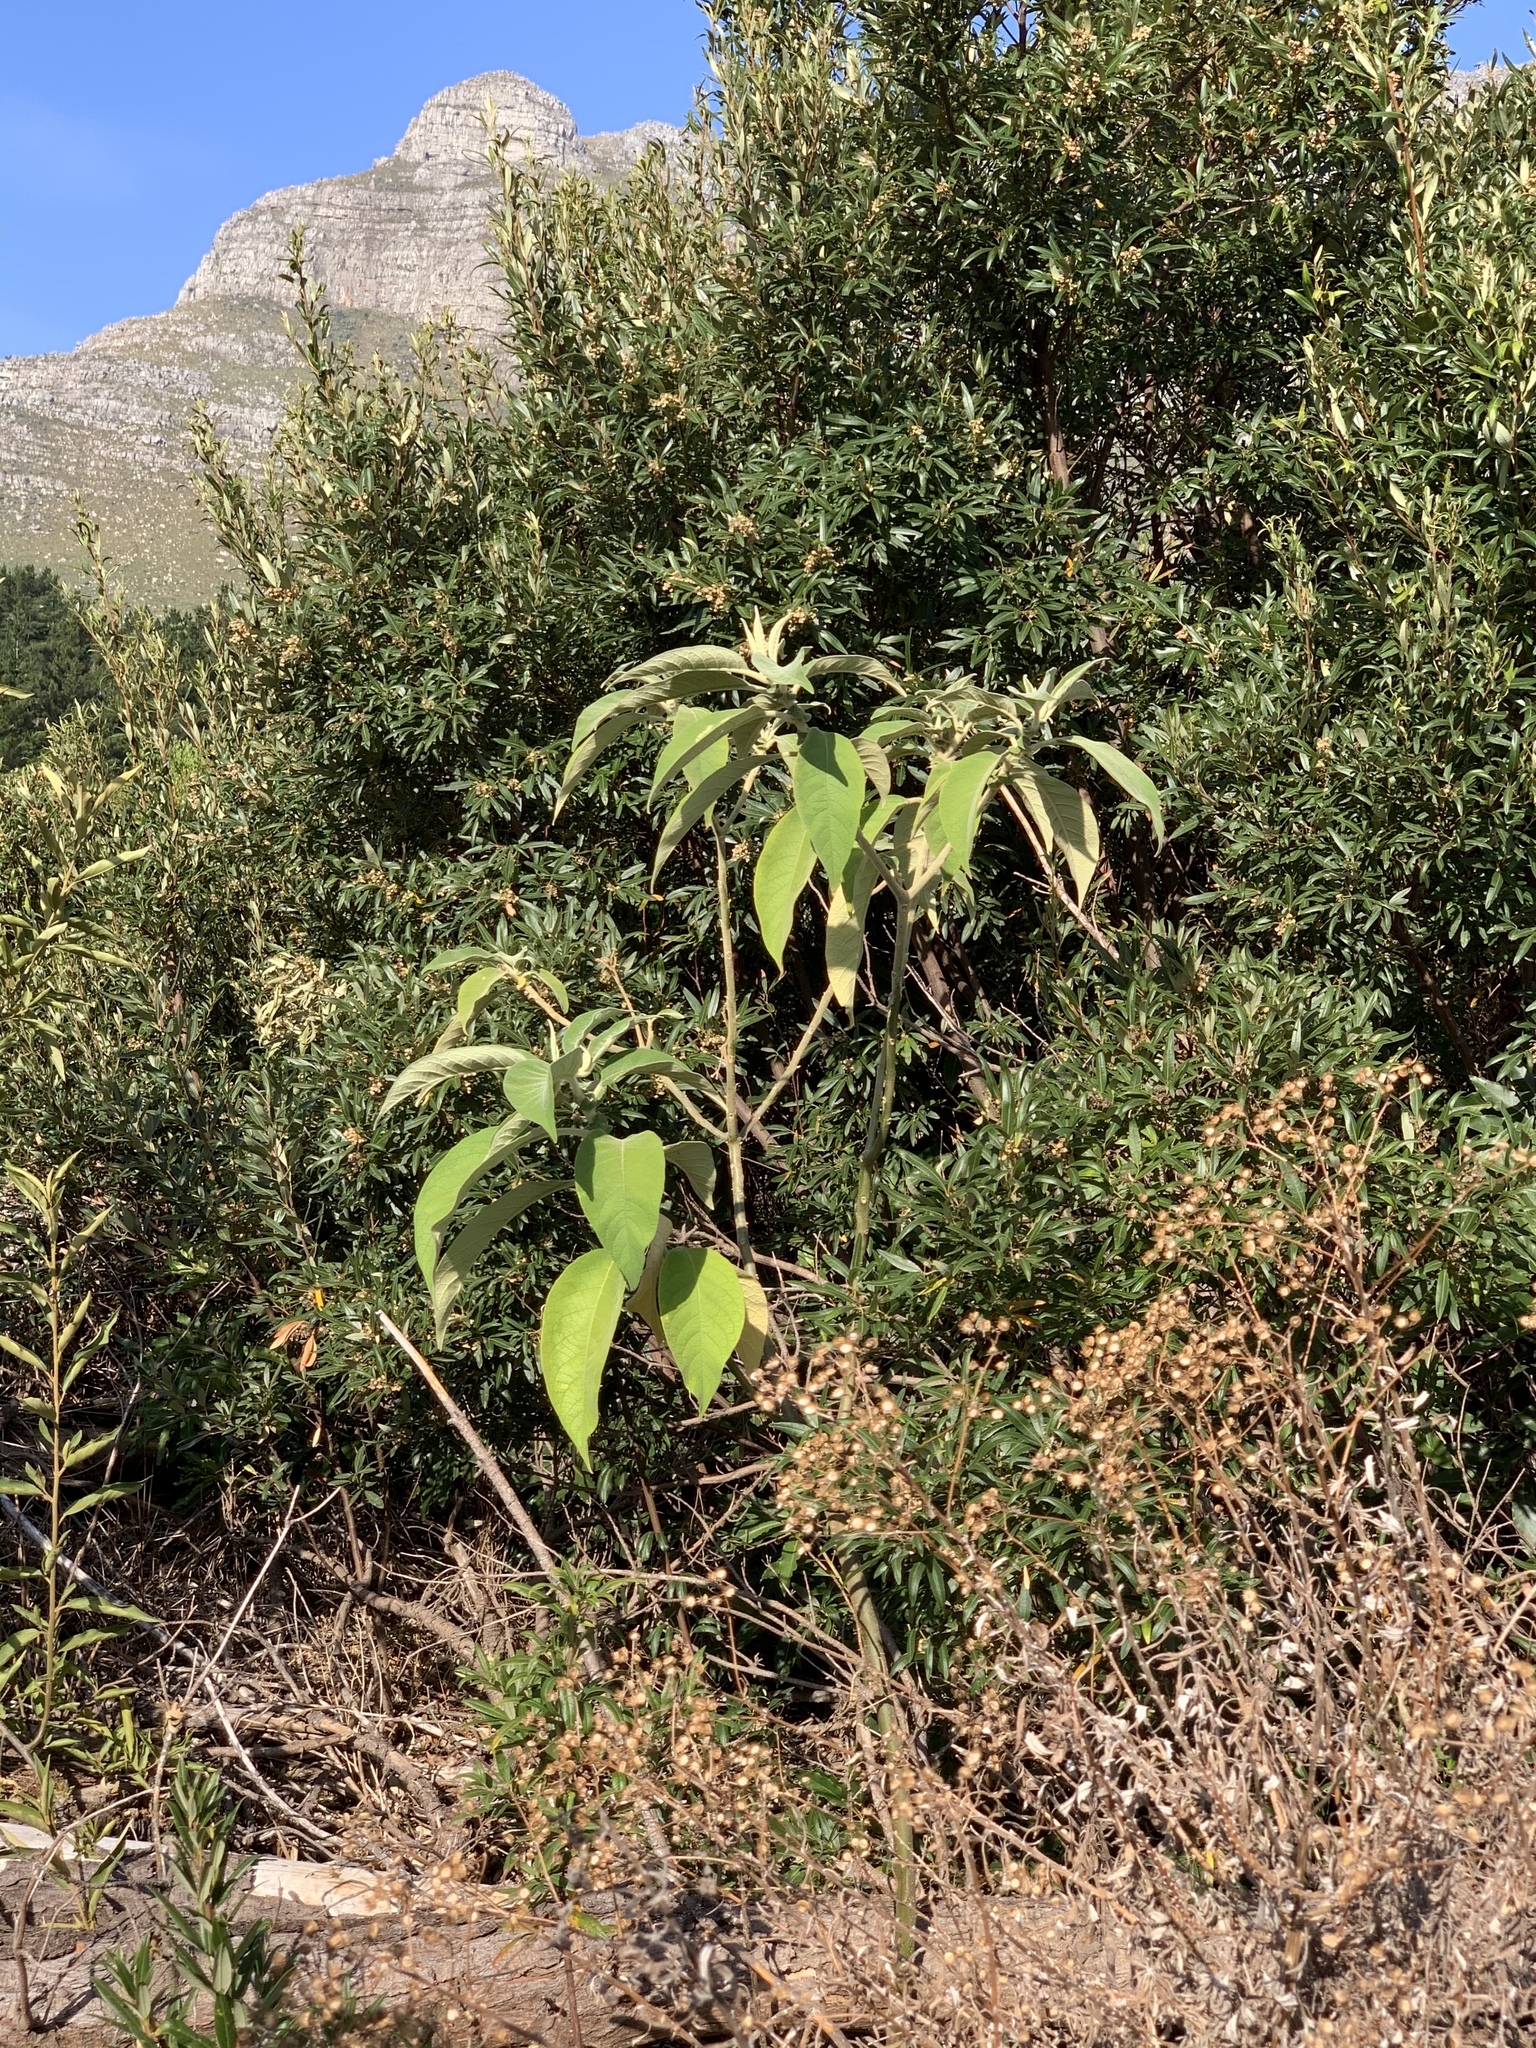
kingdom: Plantae
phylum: Tracheophyta
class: Magnoliopsida
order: Solanales
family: Solanaceae
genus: Solanum
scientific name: Solanum mauritianum
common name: Earleaf nightshade
